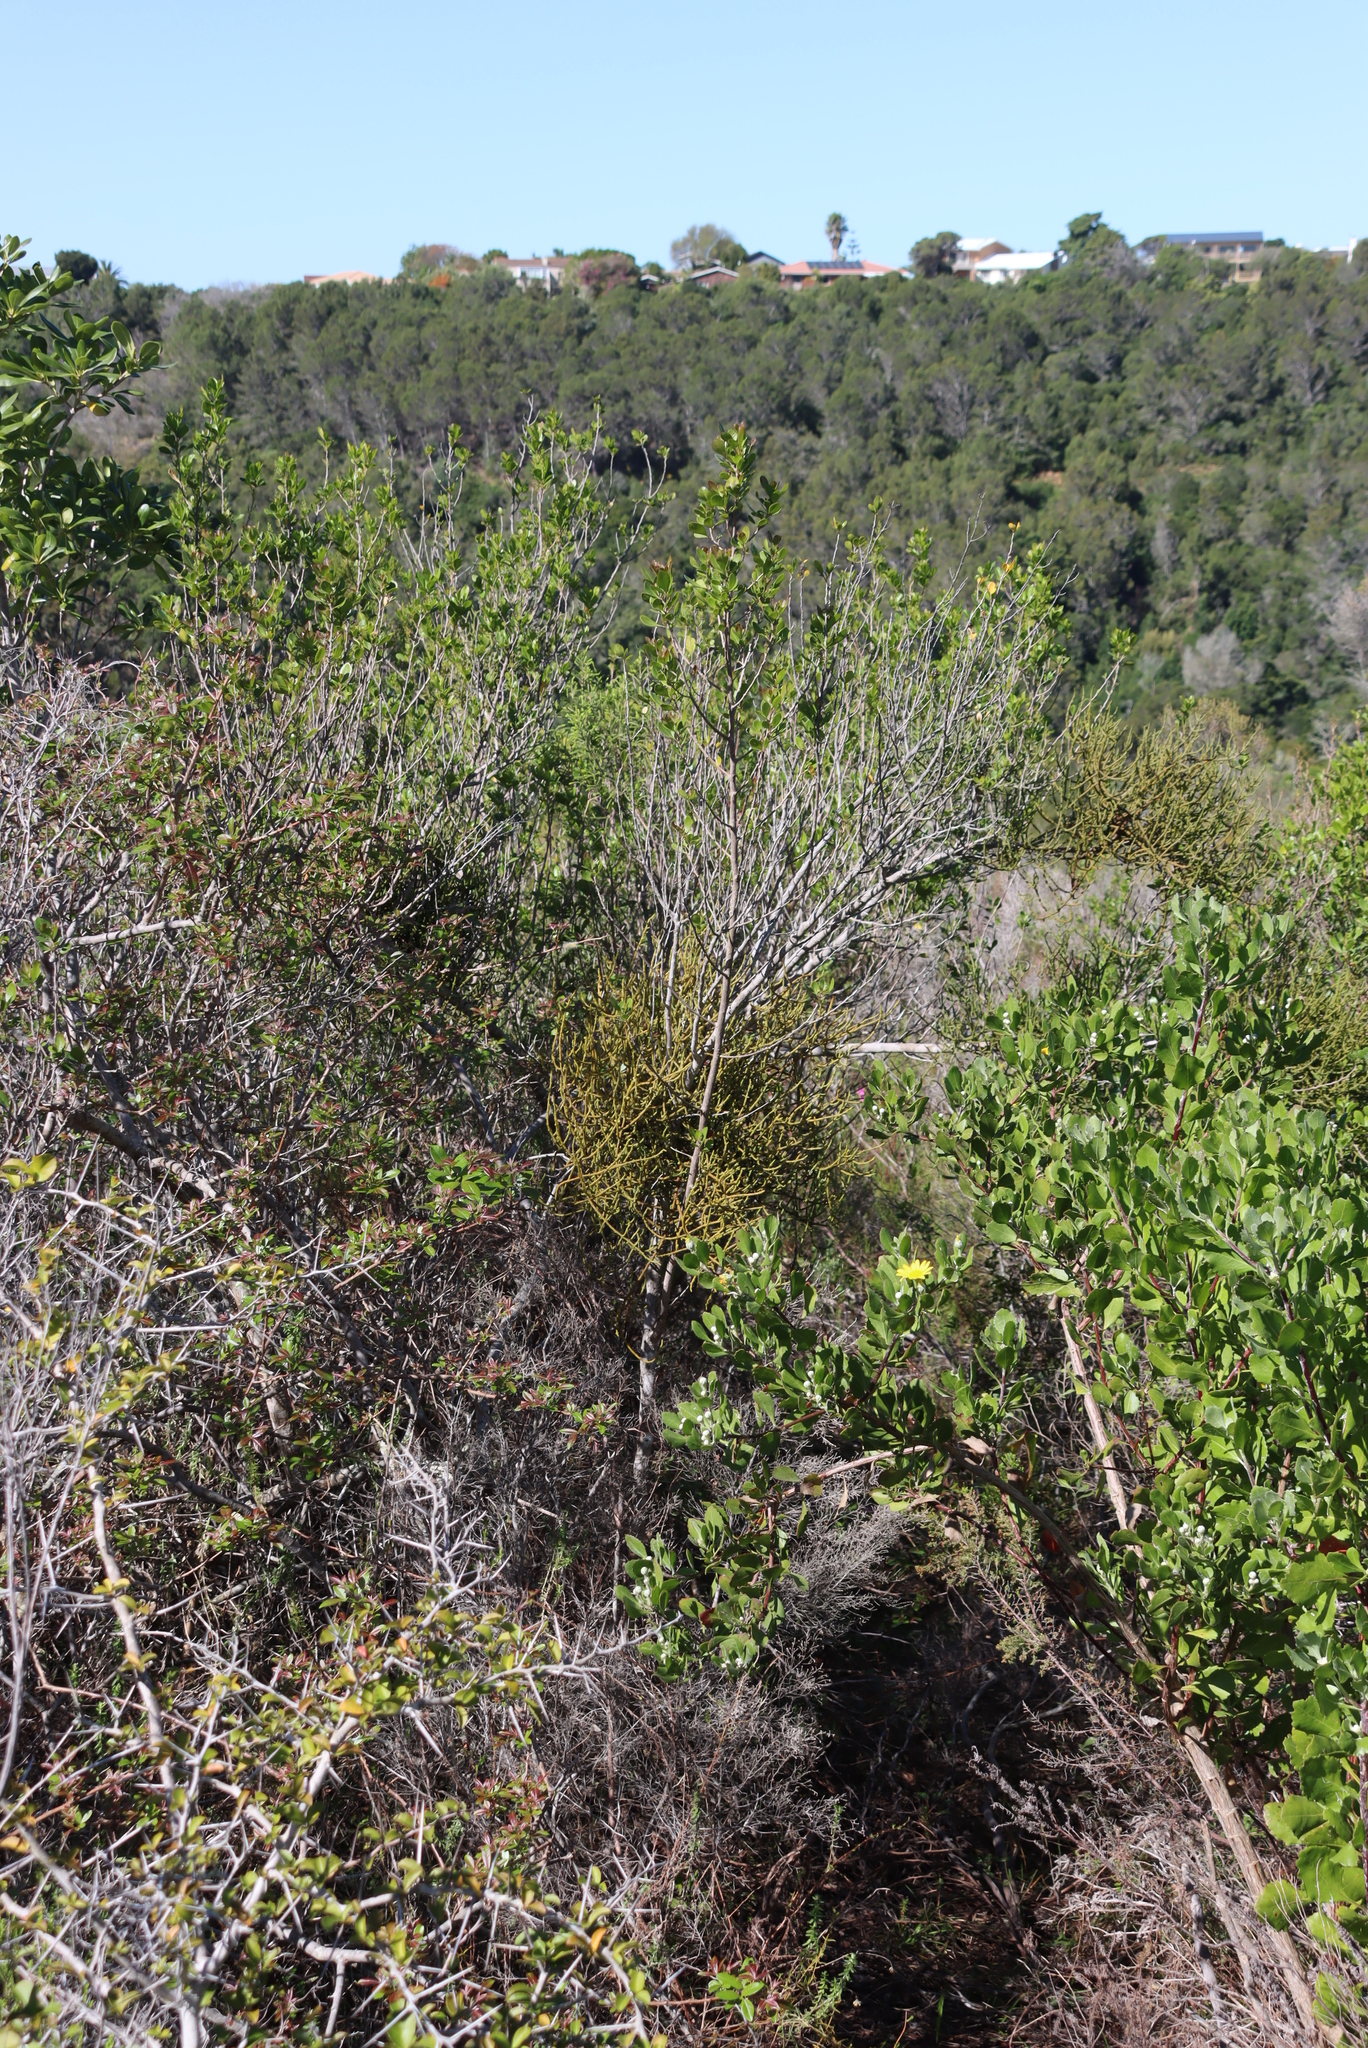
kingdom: Plantae
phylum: Tracheophyta
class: Magnoliopsida
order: Santalales
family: Viscaceae
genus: Viscum
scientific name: Viscum capense
